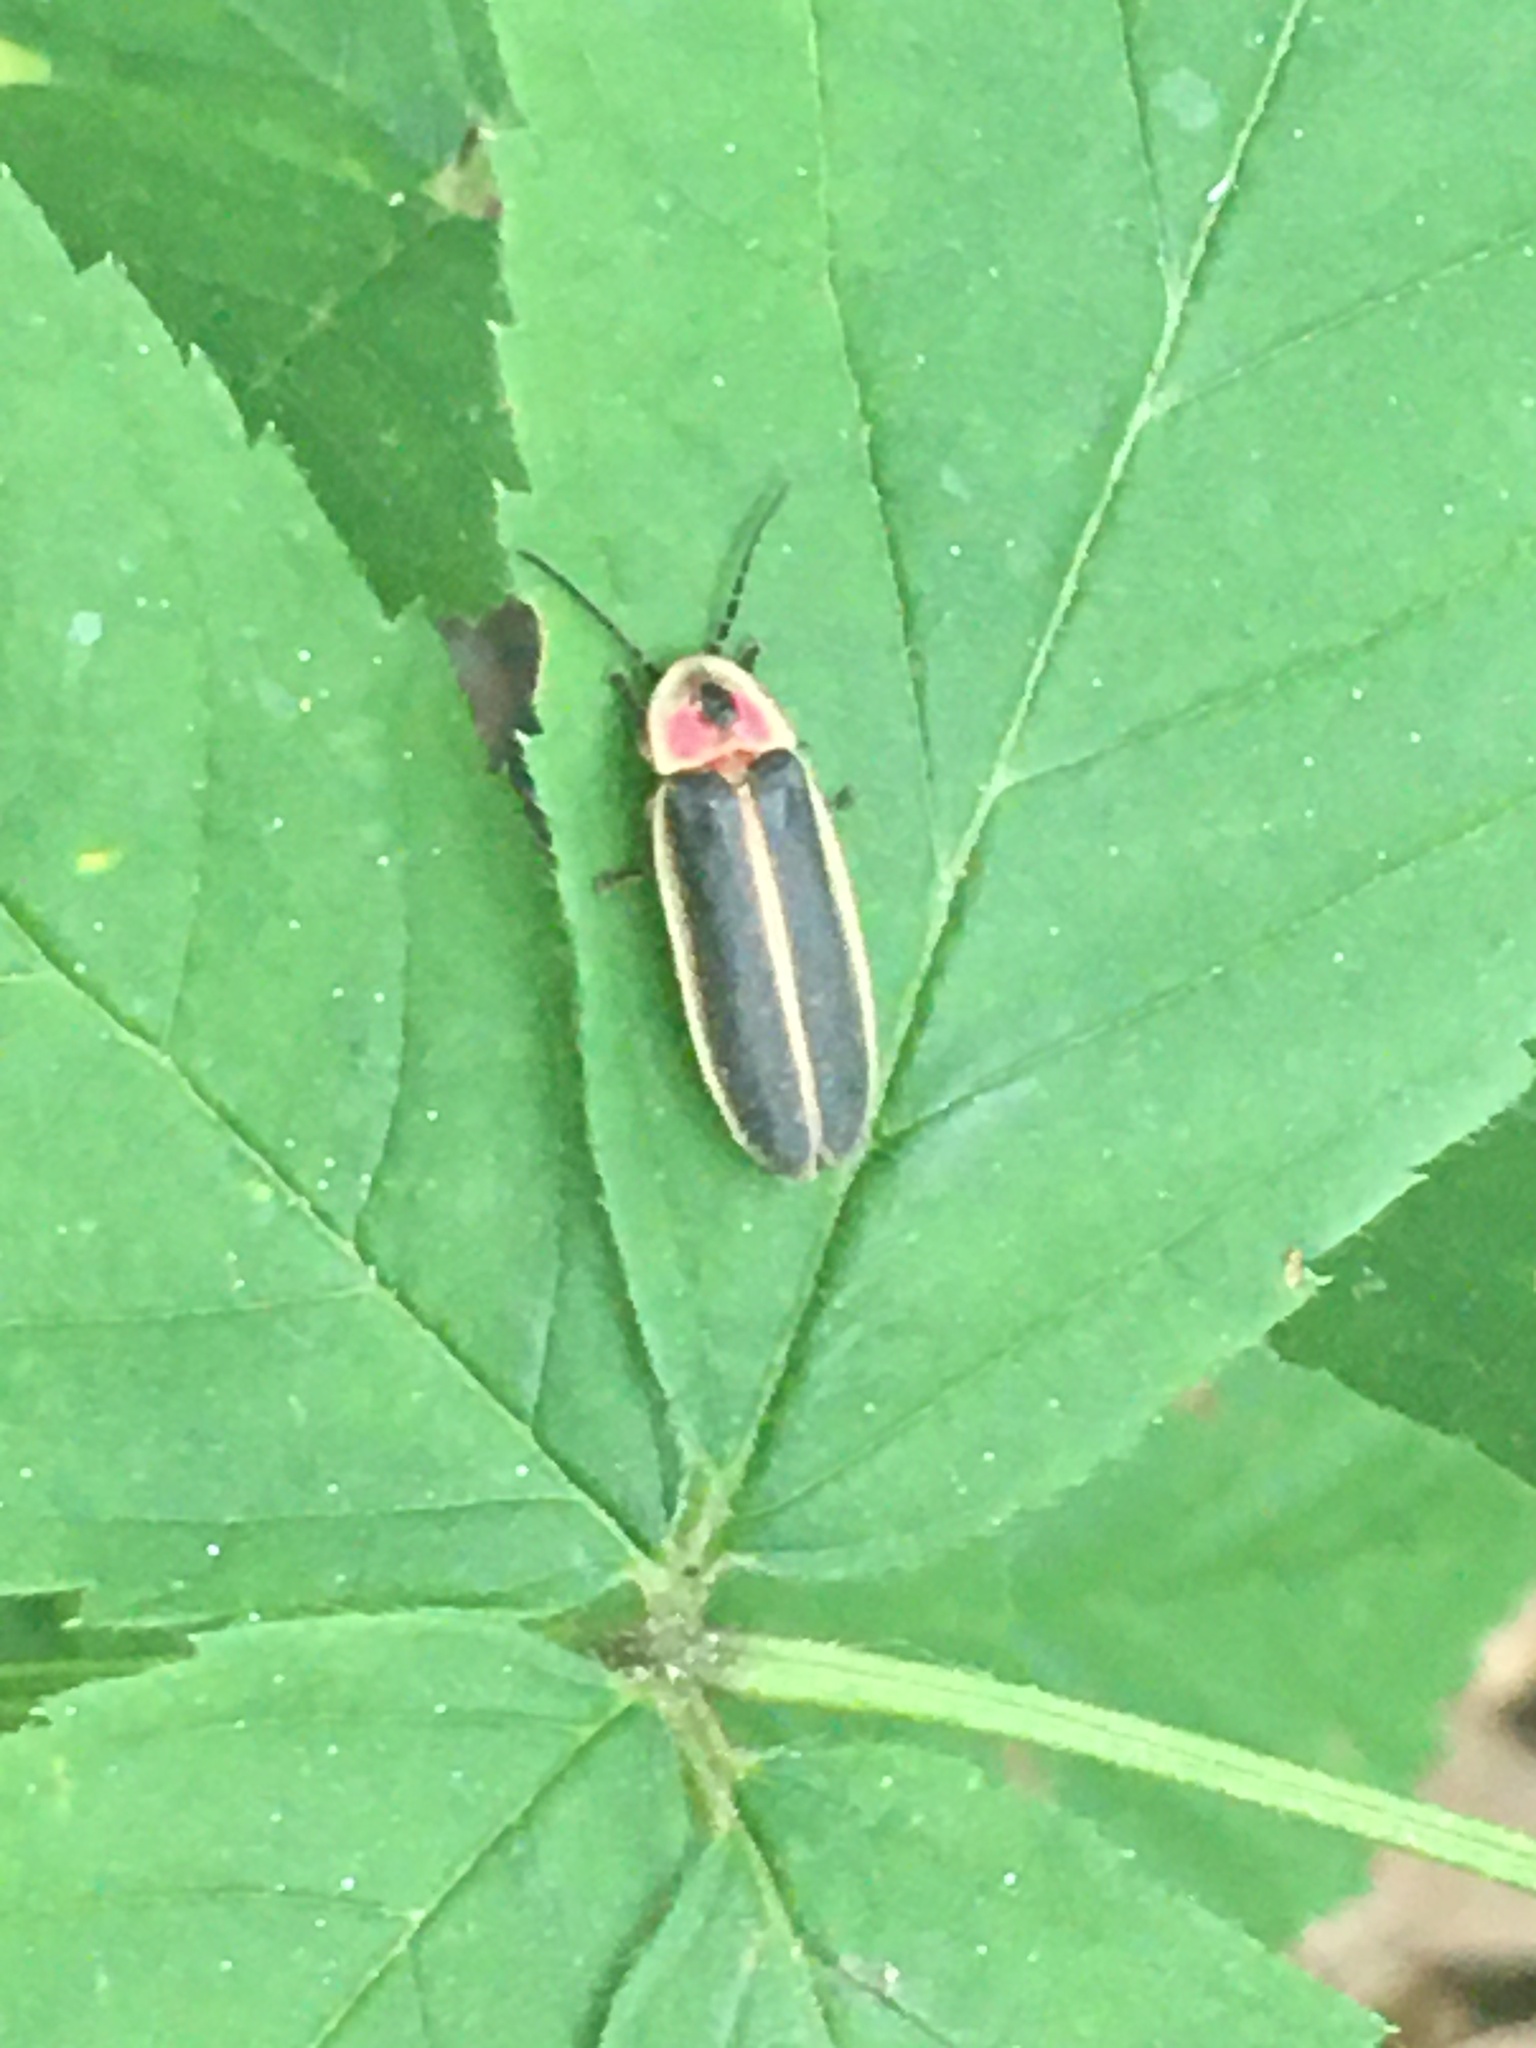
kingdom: Animalia
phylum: Arthropoda
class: Insecta
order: Coleoptera
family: Lampyridae
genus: Photinus
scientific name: Photinus pyralis
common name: Big dipper firefly
